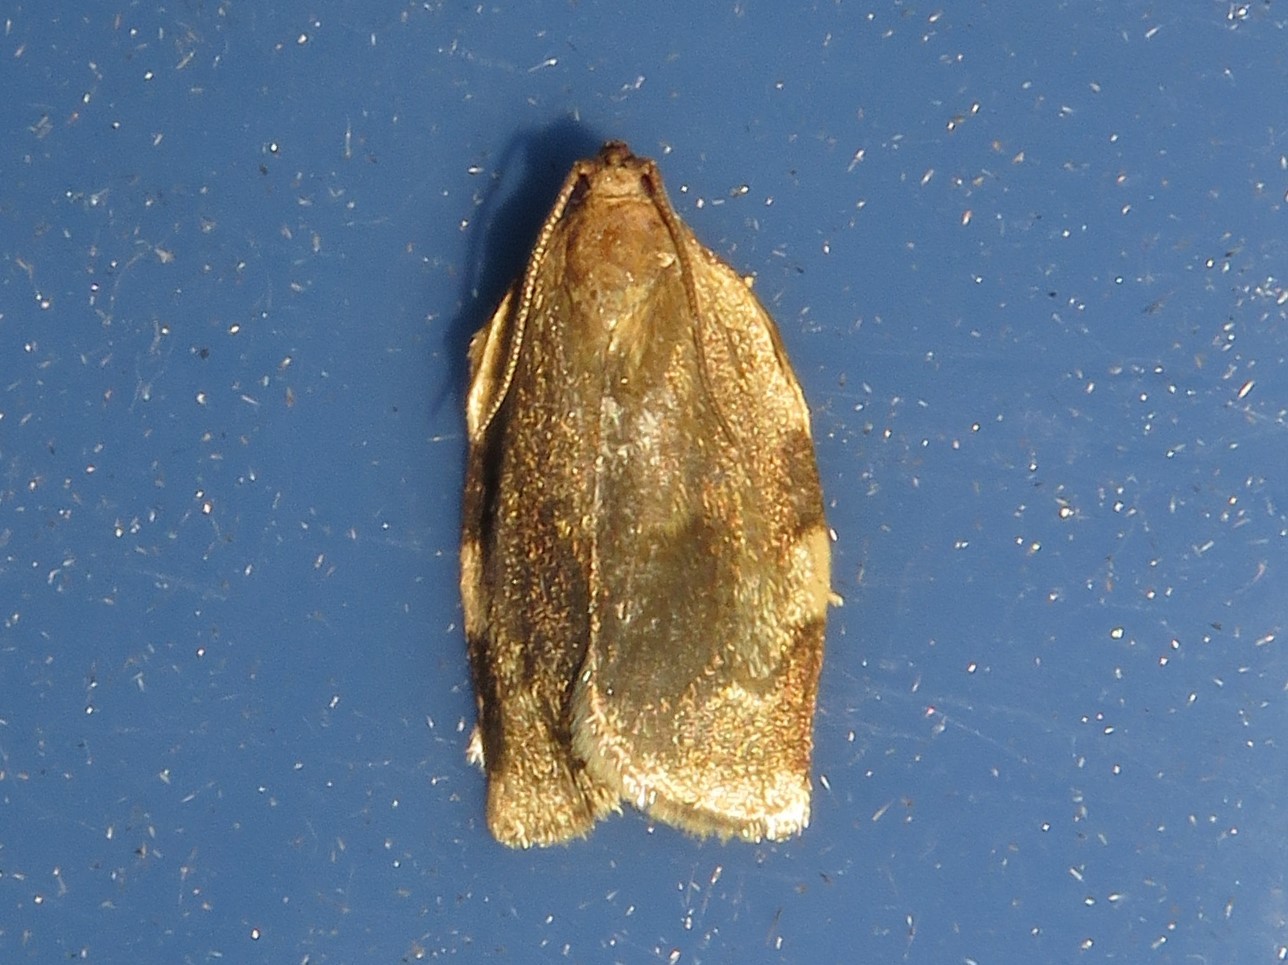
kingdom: Animalia
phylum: Arthropoda
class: Insecta
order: Lepidoptera
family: Tortricidae
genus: Choristoneura
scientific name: Choristoneura fractivittana
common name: Broken-banded leafroller moth
